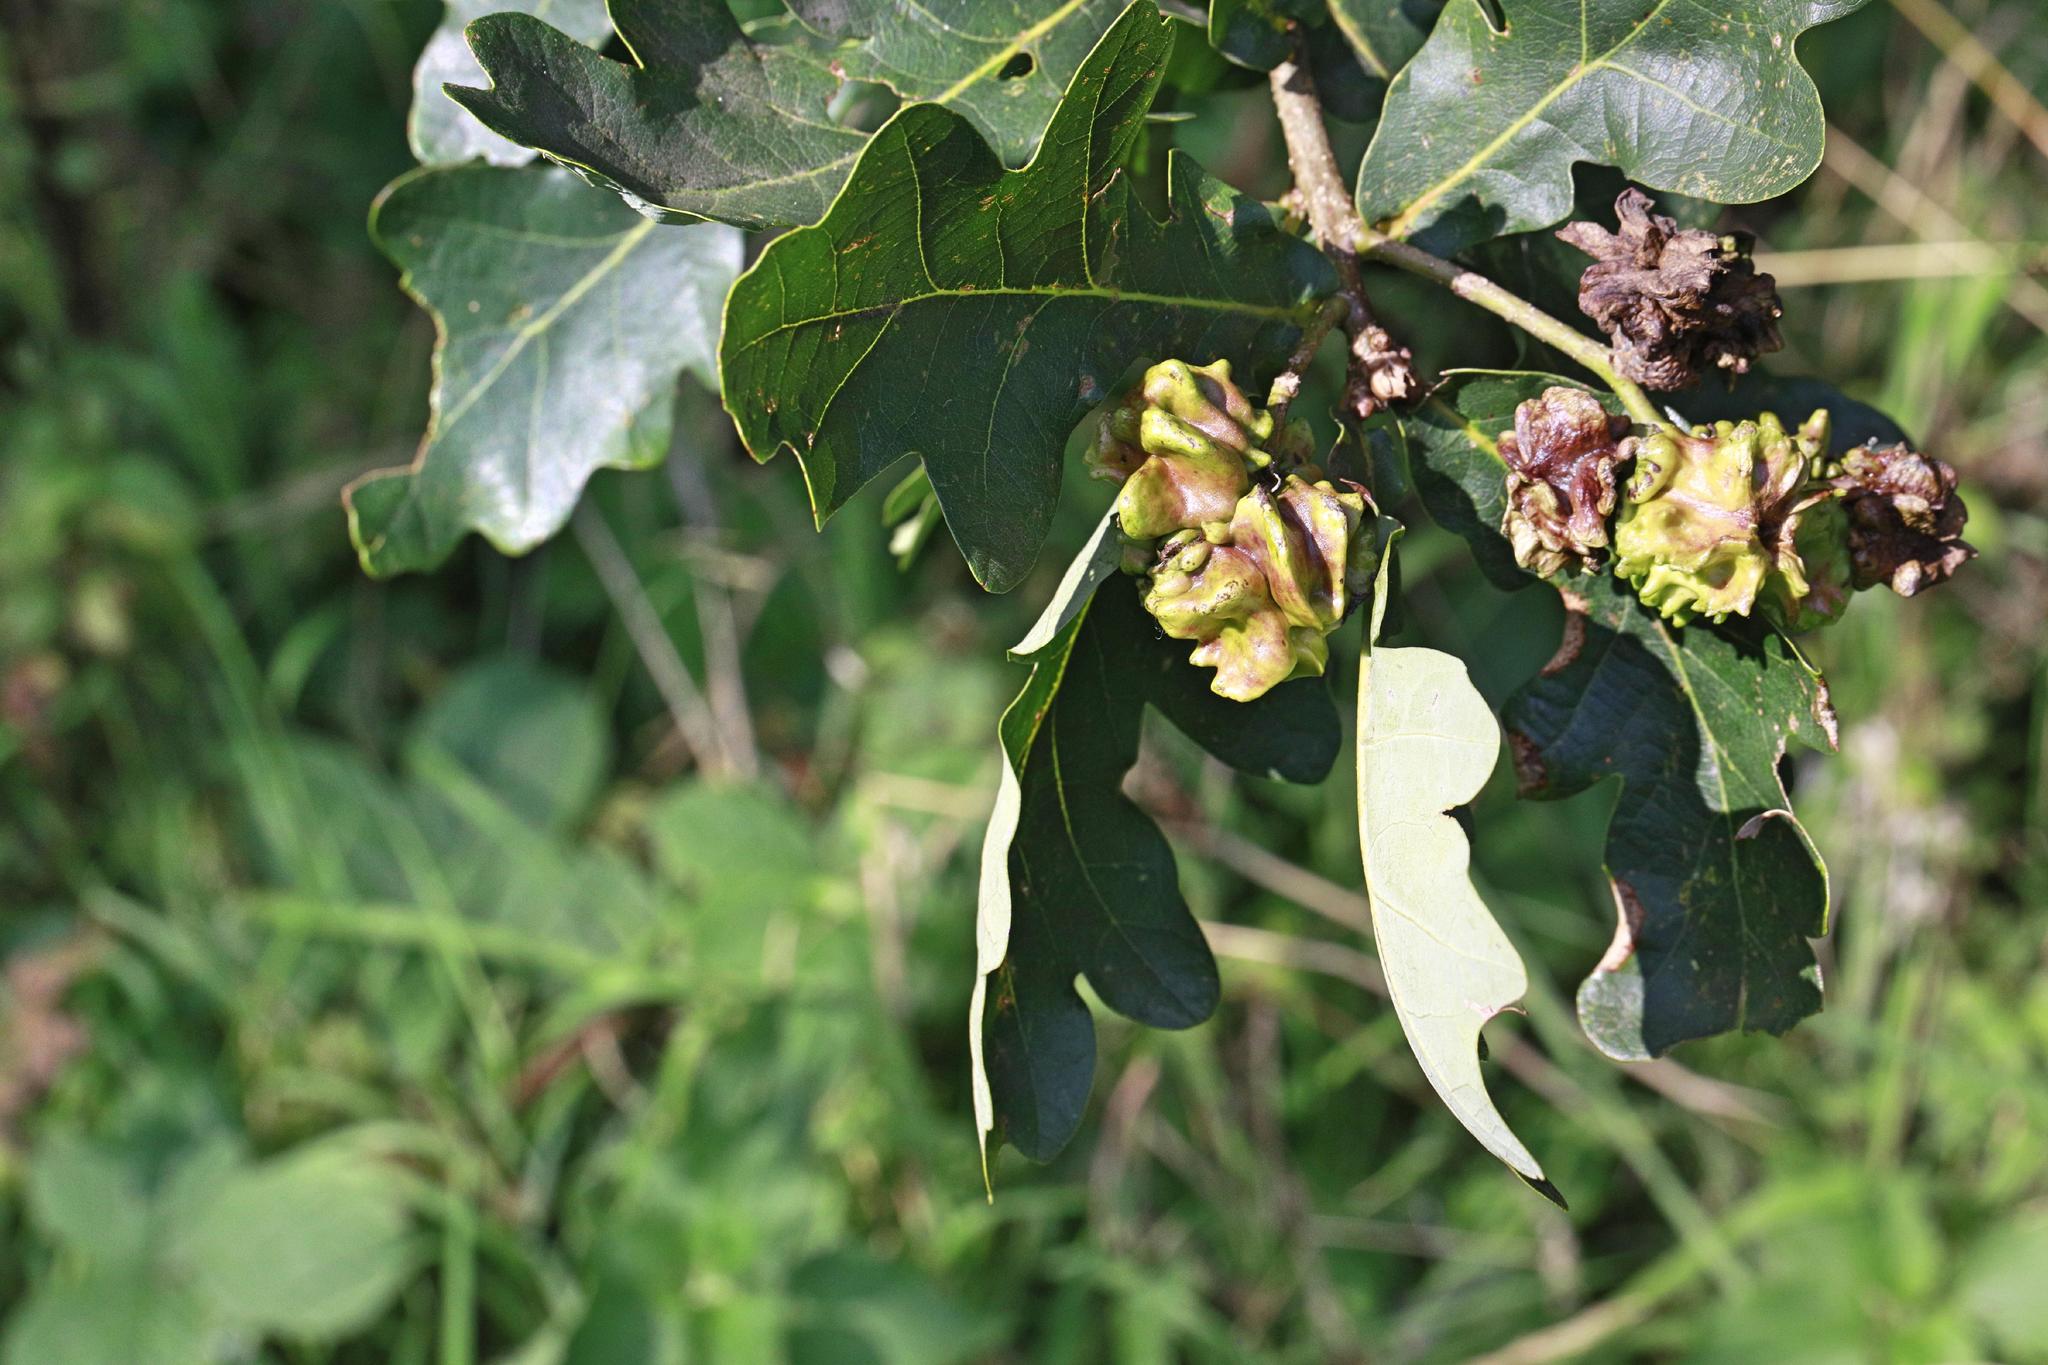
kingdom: Animalia
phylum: Arthropoda
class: Insecta
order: Hymenoptera
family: Cynipidae
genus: Andricus
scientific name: Andricus quercuscalicis
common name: Knopper gall
